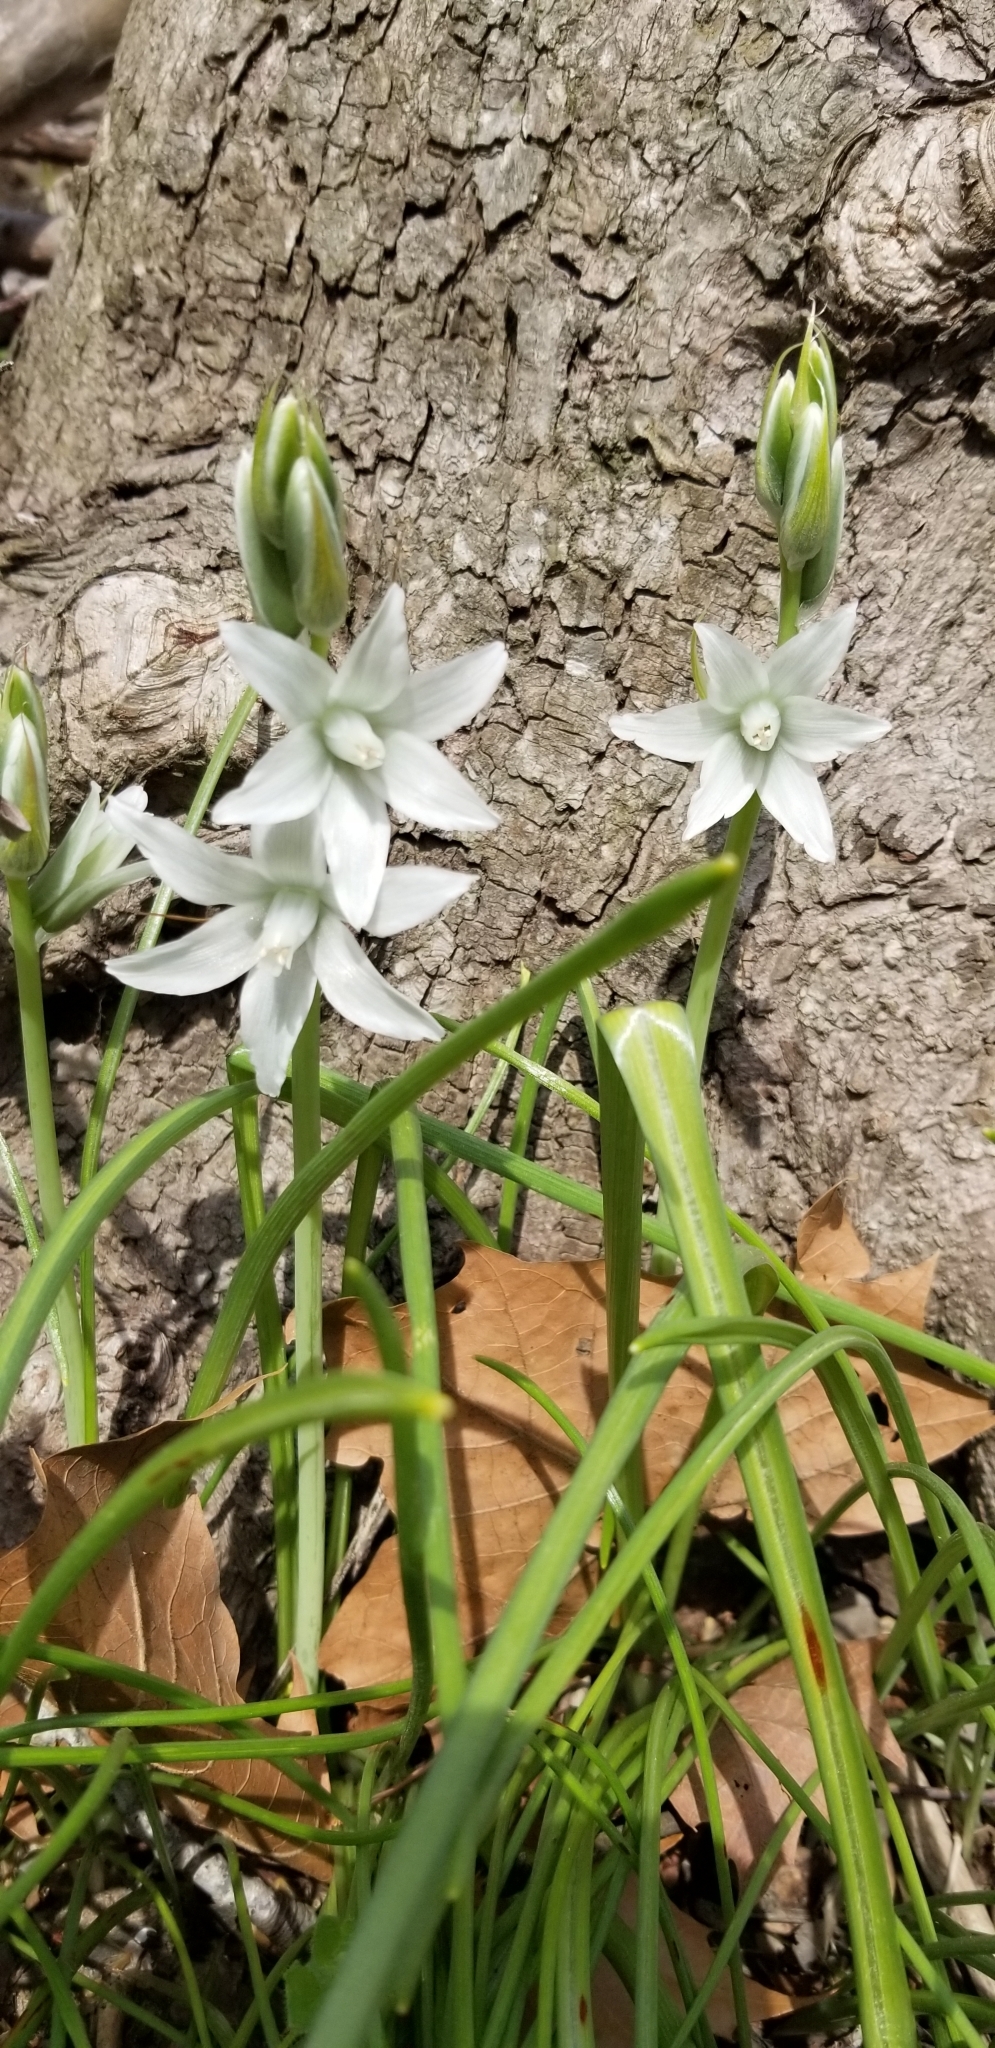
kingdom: Plantae
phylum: Tracheophyta
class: Liliopsida
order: Asparagales
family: Asparagaceae
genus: Ornithogalum
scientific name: Ornithogalum nutans
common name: Drooping star-of-bethlehem
